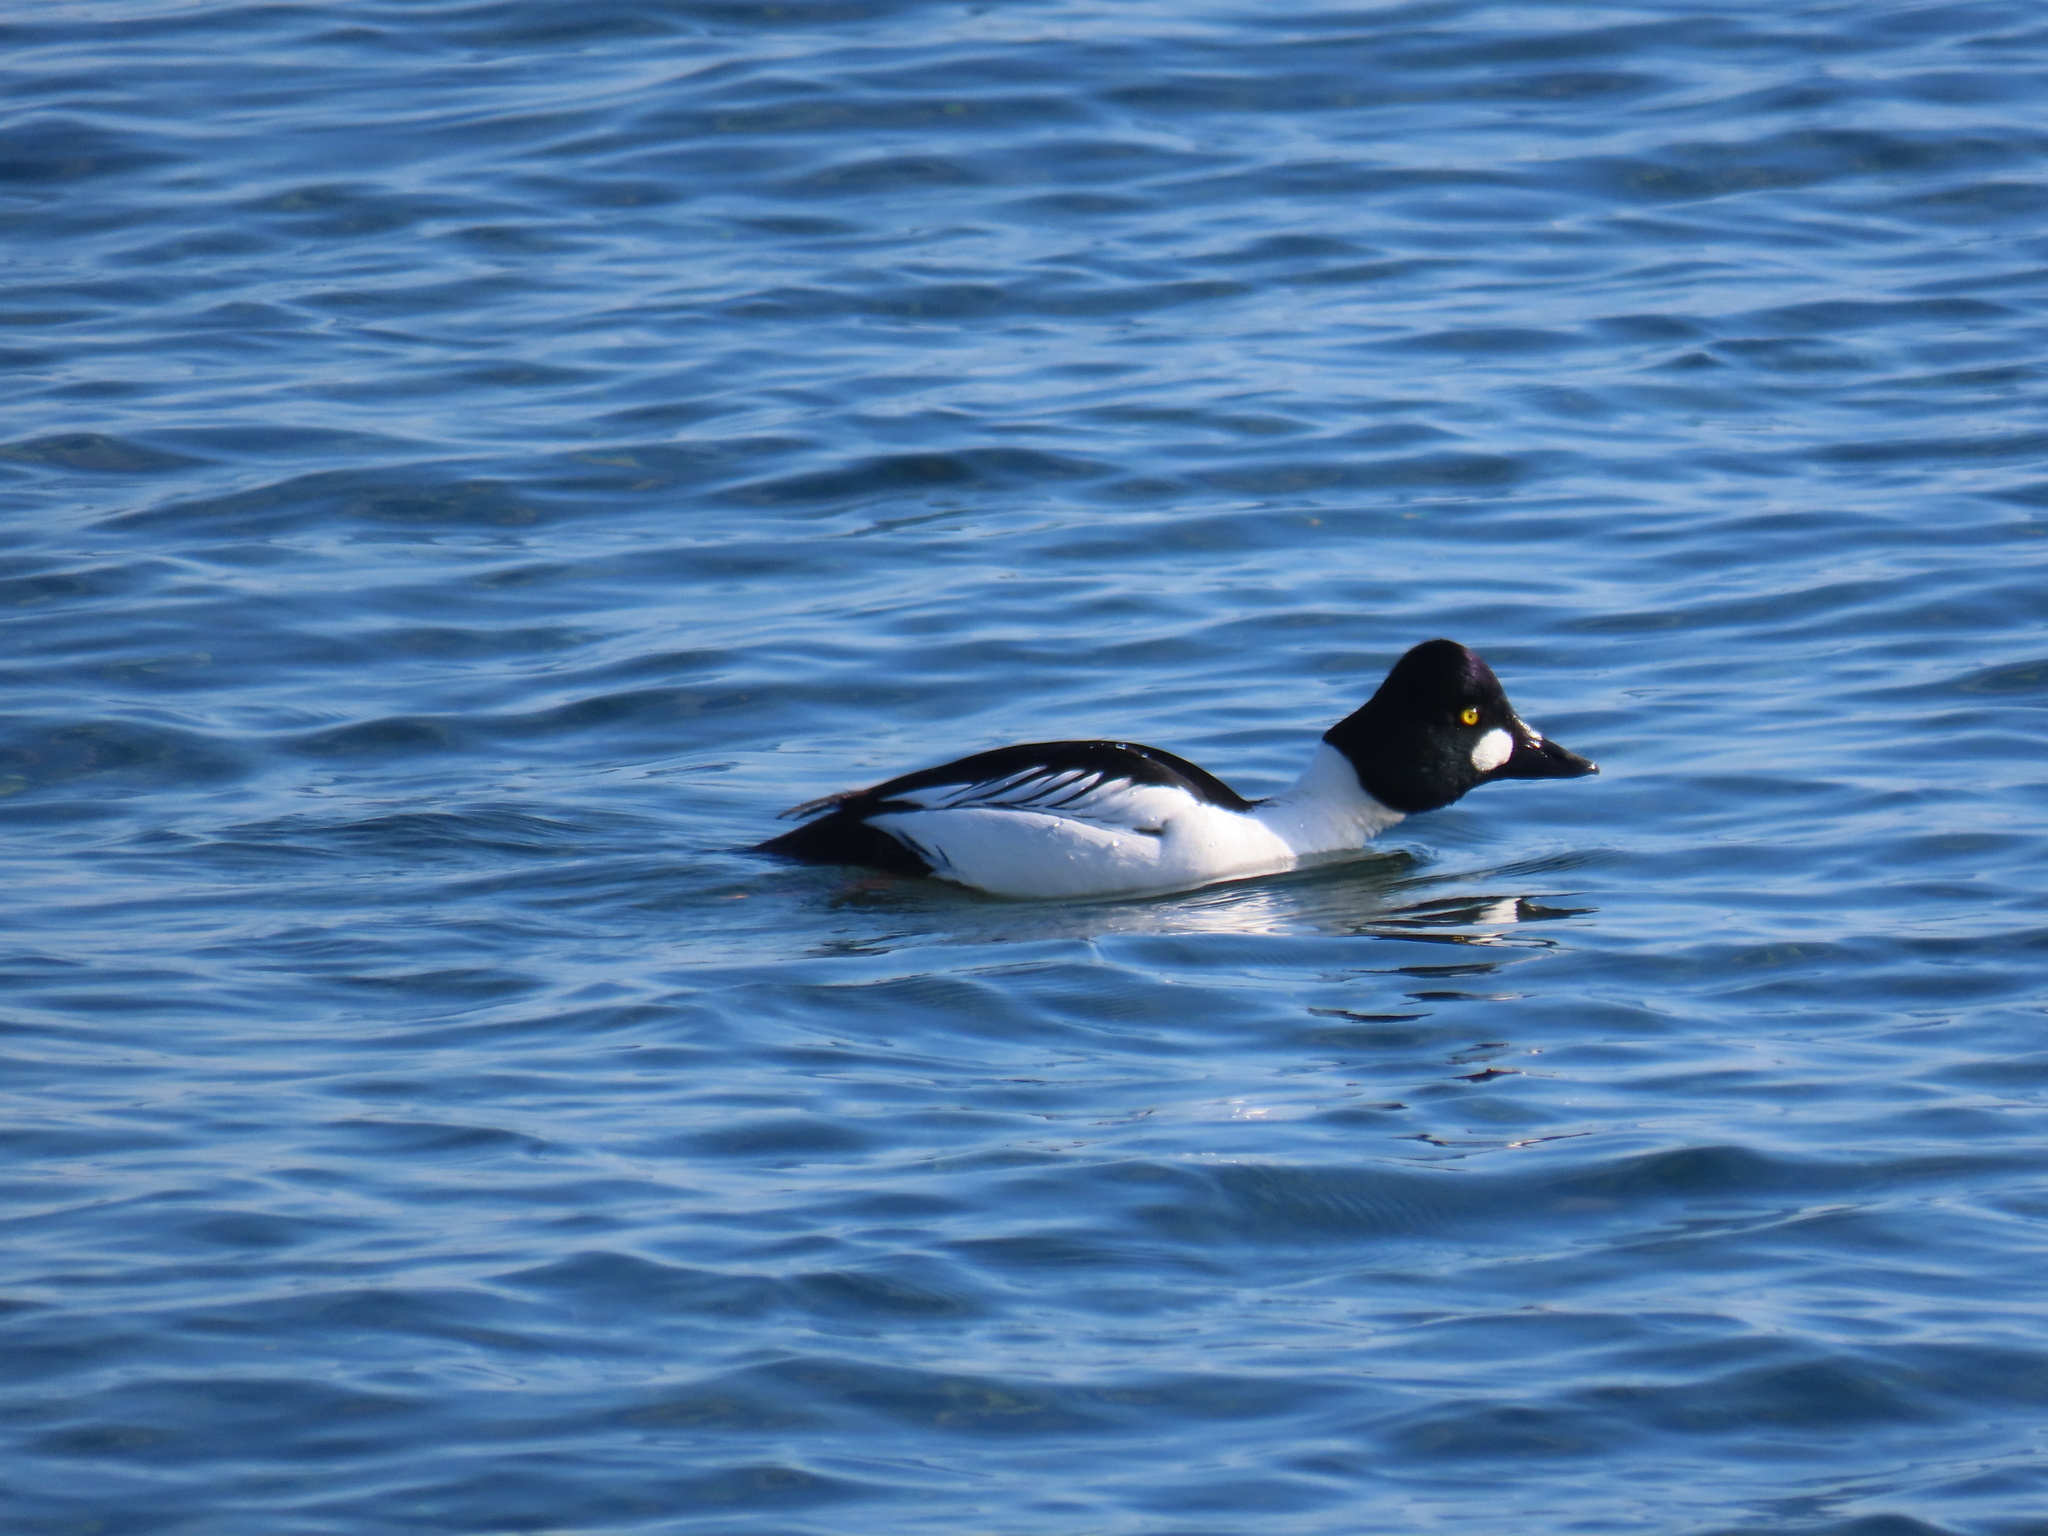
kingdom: Animalia
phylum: Chordata
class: Aves
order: Anseriformes
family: Anatidae
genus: Bucephala
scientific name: Bucephala clangula
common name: Common goldeneye
